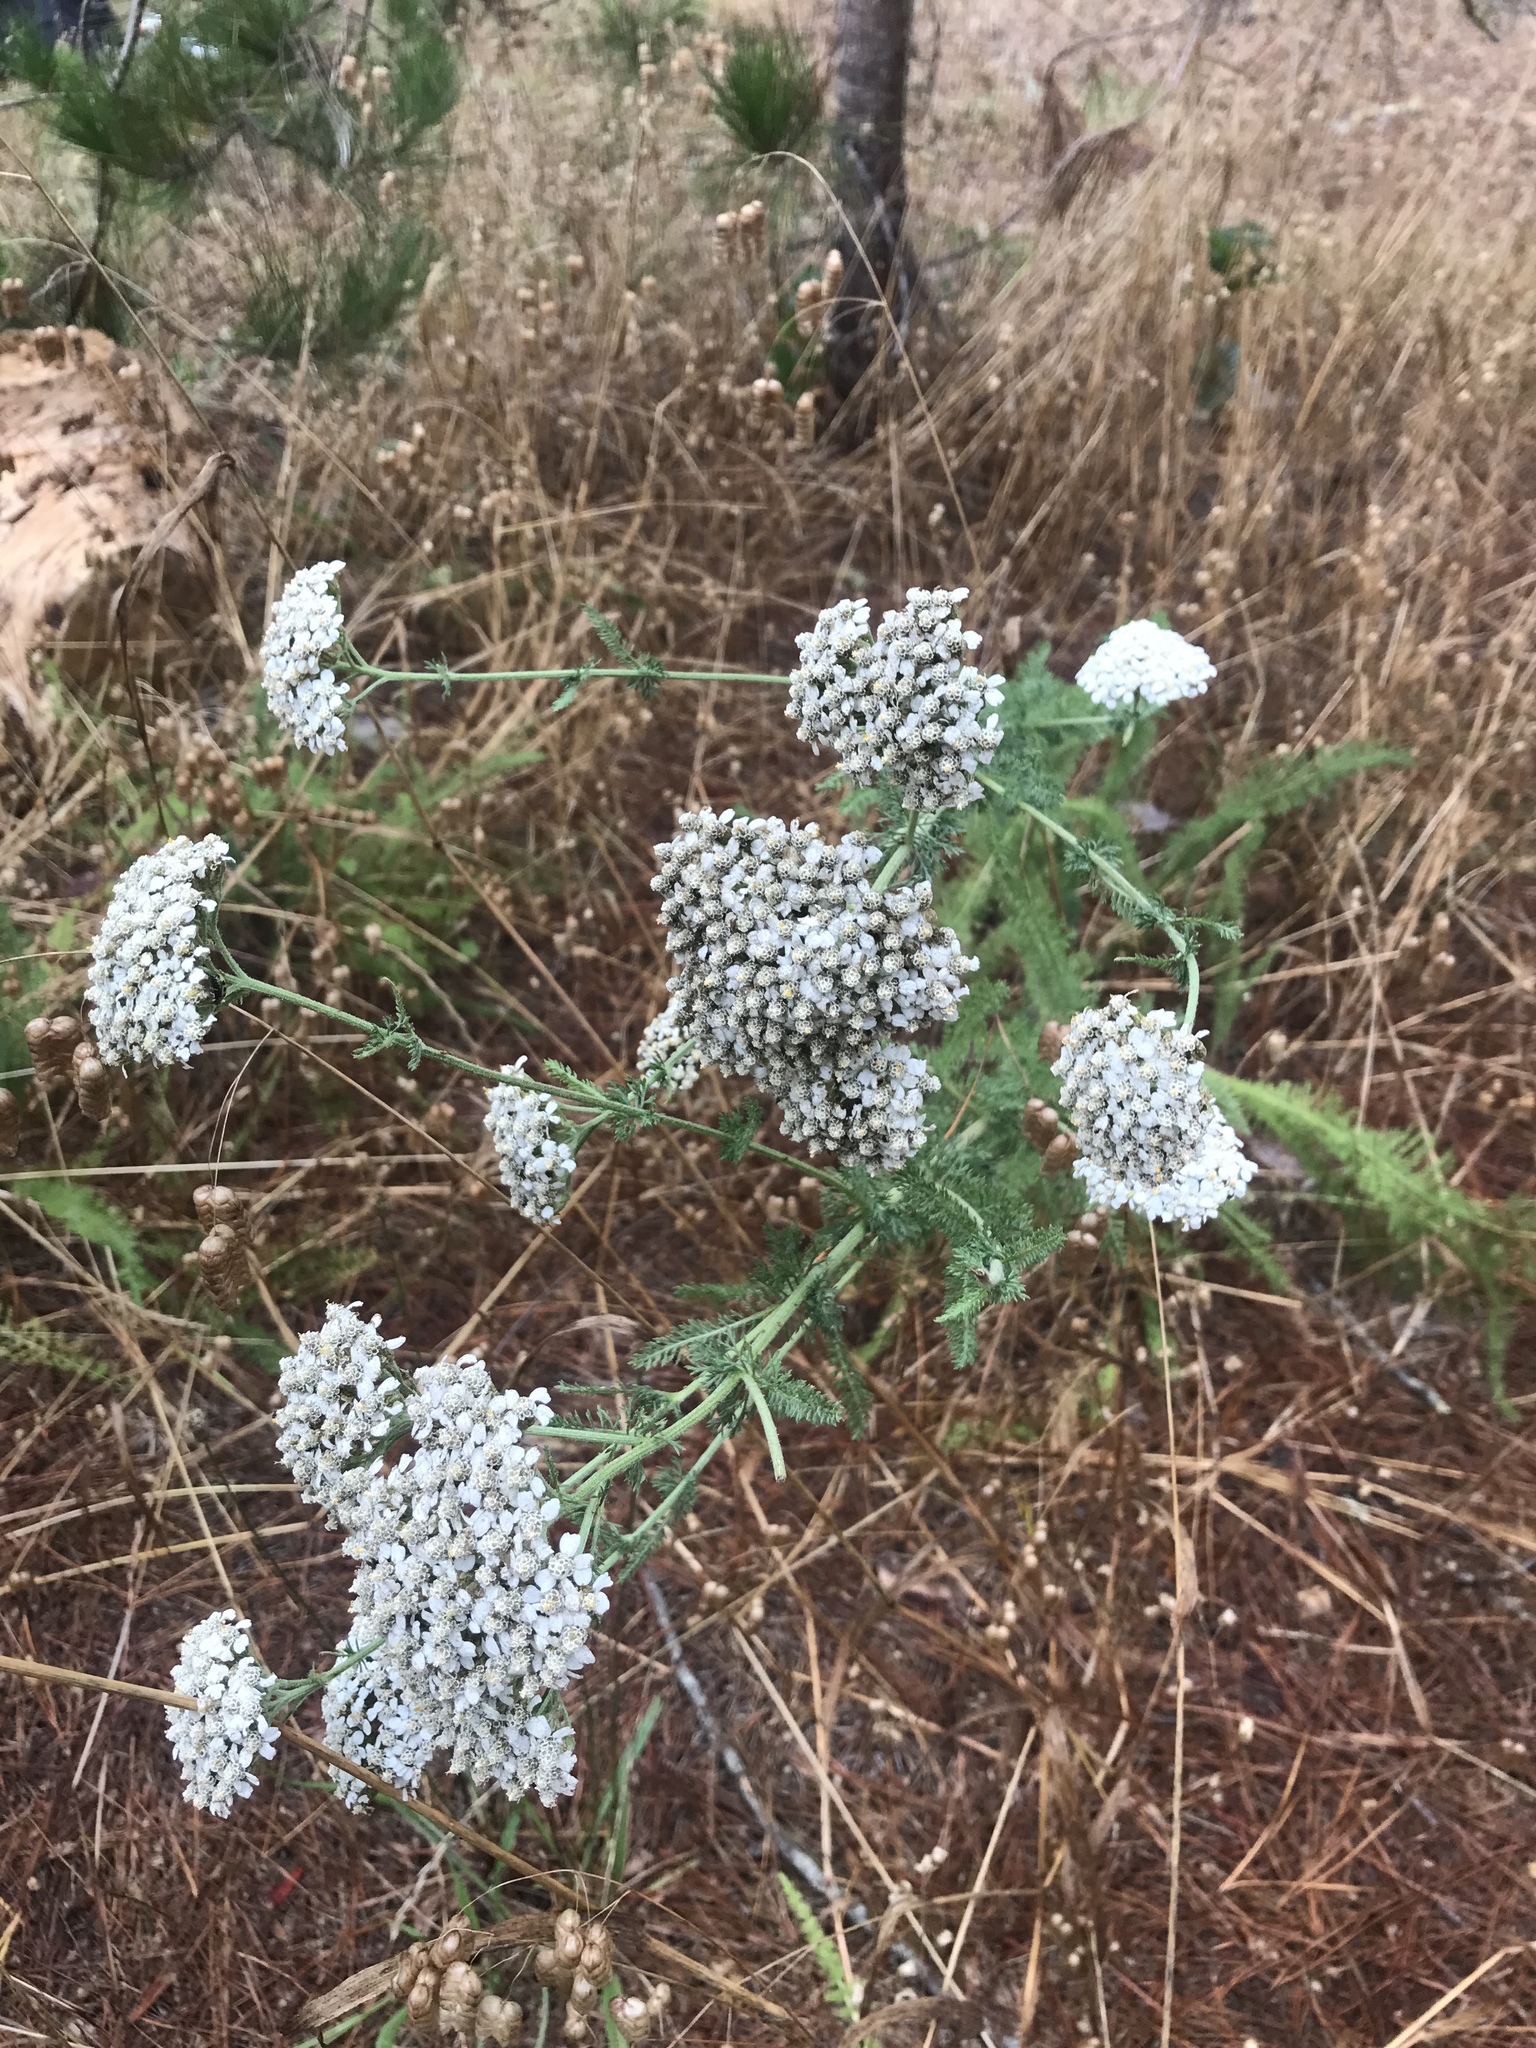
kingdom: Plantae
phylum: Tracheophyta
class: Magnoliopsida
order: Asterales
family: Asteraceae
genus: Achillea
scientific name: Achillea millefolium
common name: Yarrow
